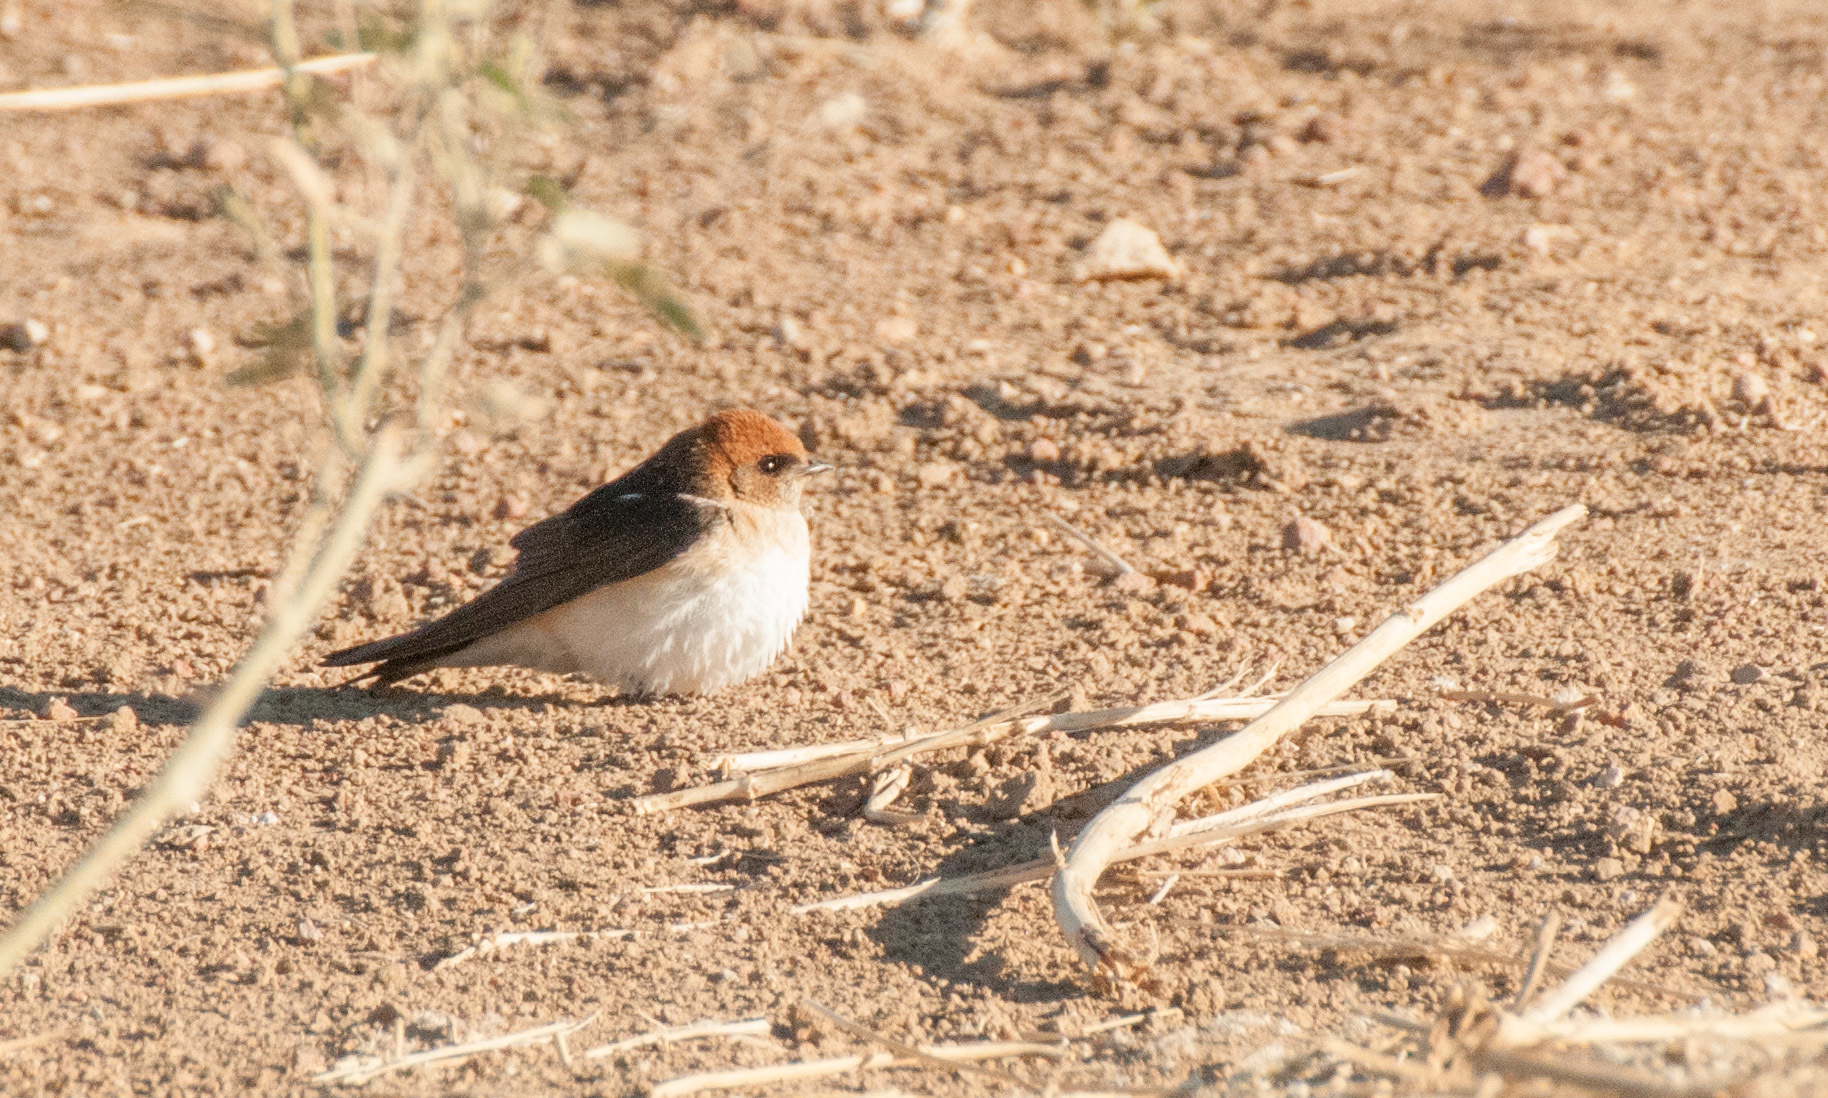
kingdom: Animalia
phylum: Chordata
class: Aves
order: Passeriformes
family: Hirundinidae
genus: Petrochelidon
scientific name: Petrochelidon ariel
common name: Fairy martin
